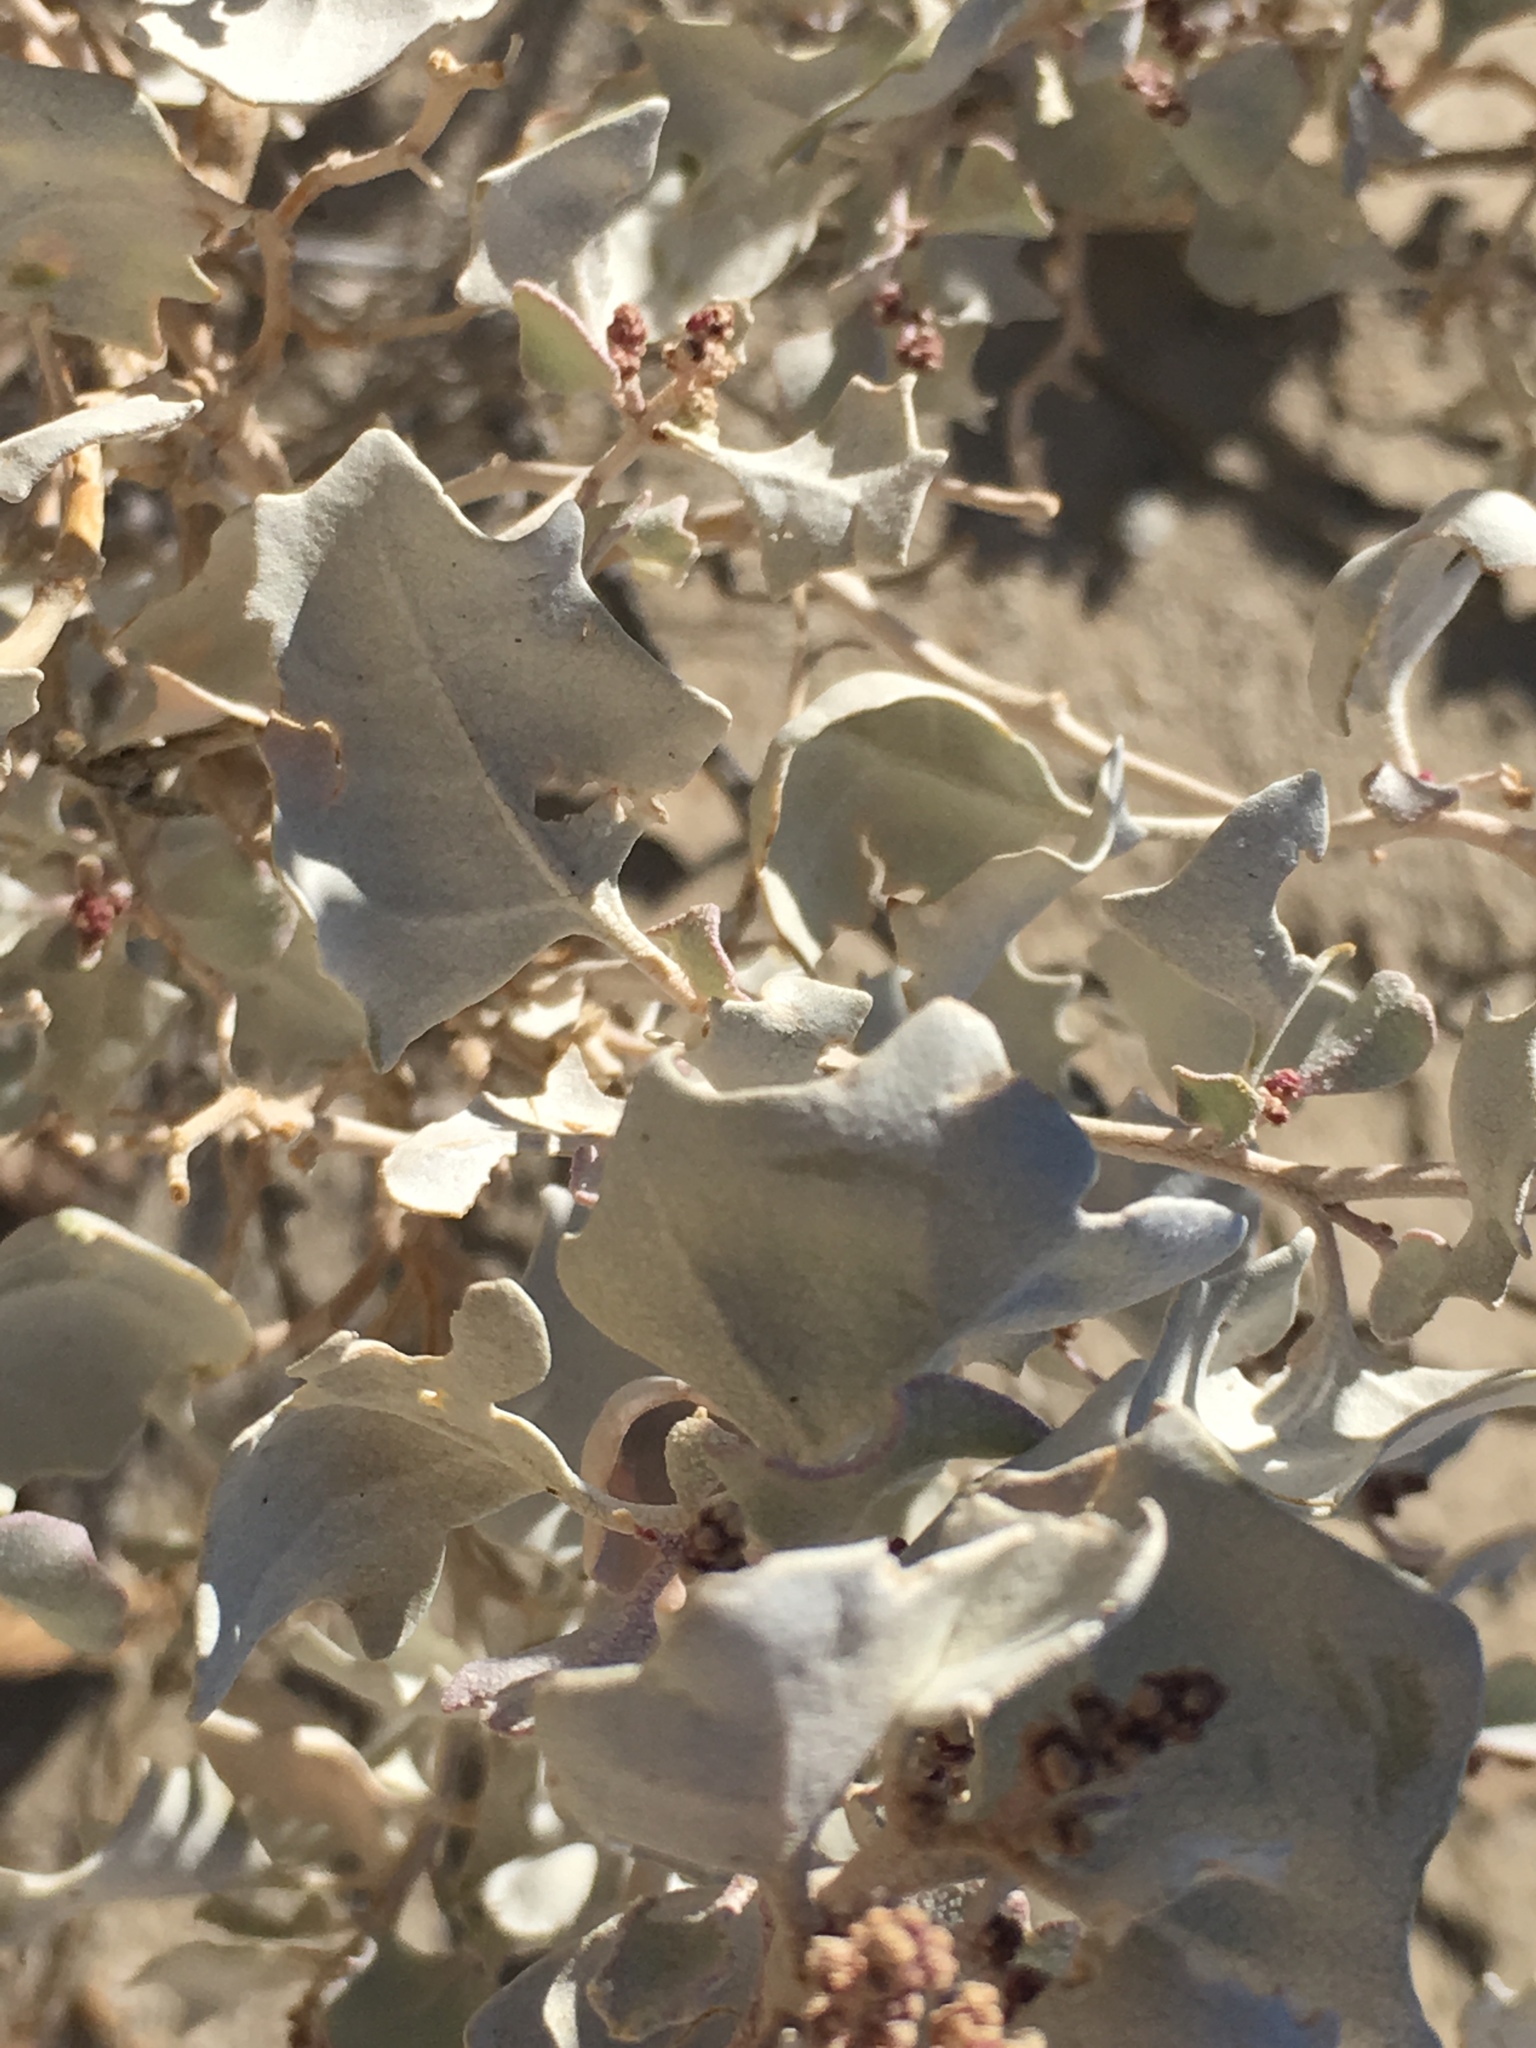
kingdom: Plantae
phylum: Tracheophyta
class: Magnoliopsida
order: Caryophyllales
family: Amaranthaceae
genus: Atriplex
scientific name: Atriplex hymenelytra
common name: Desert-holly
